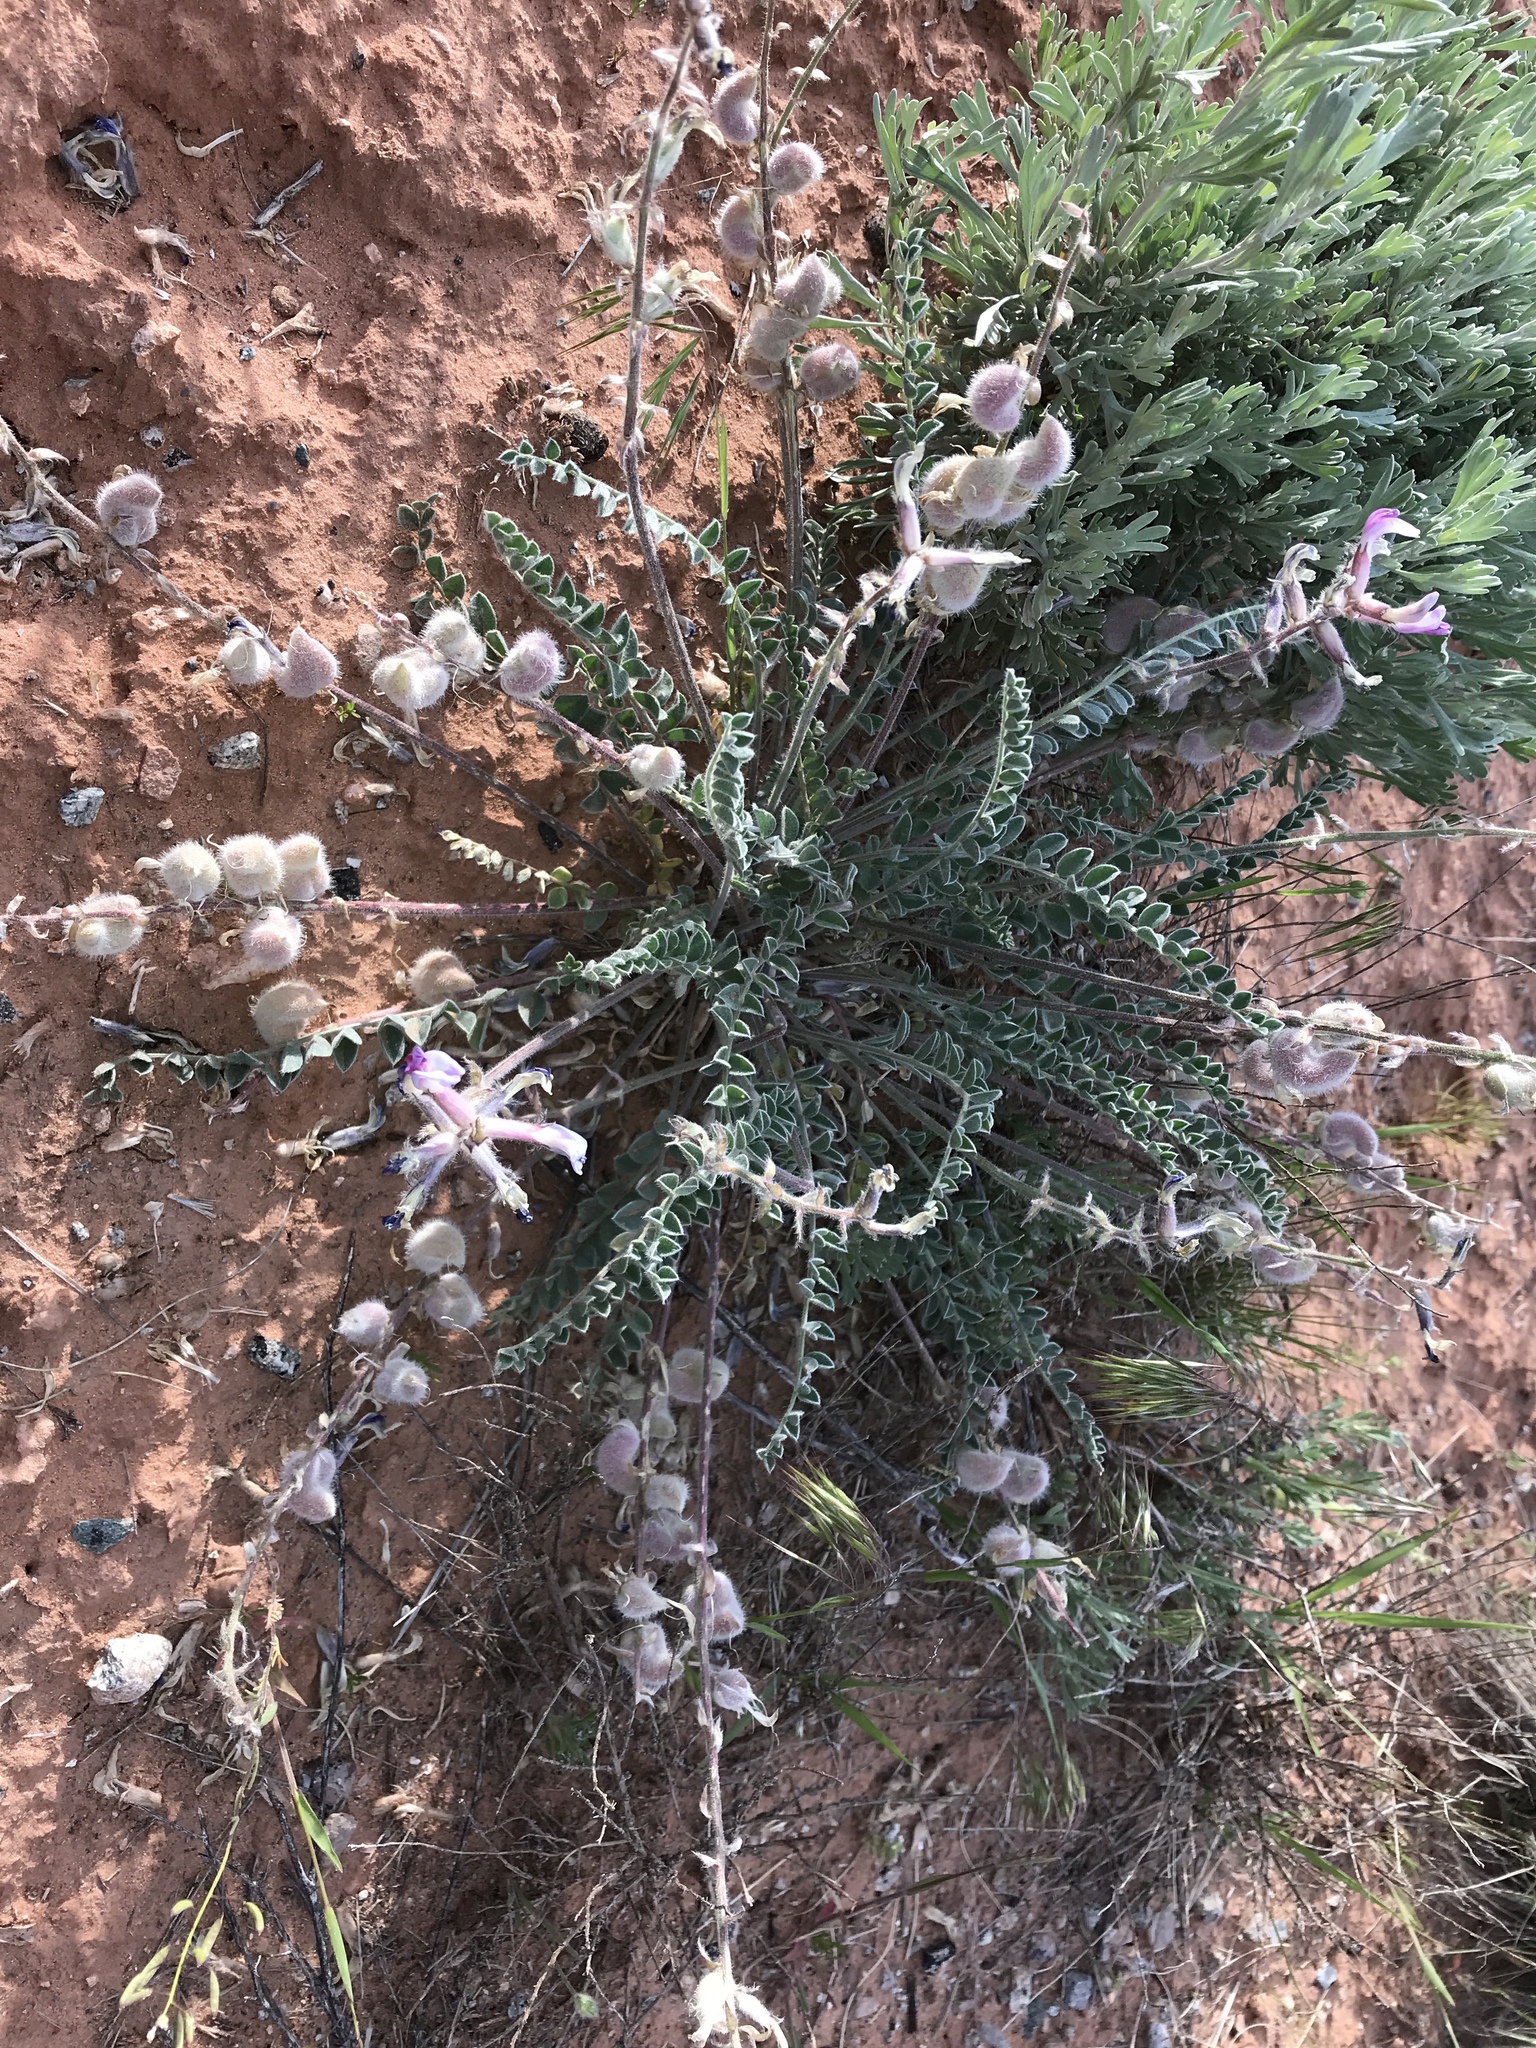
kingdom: Plantae
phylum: Tracheophyta
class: Magnoliopsida
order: Fabales
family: Fabaceae
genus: Astragalus
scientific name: Astragalus mollissimus
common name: Woolly locoweed
